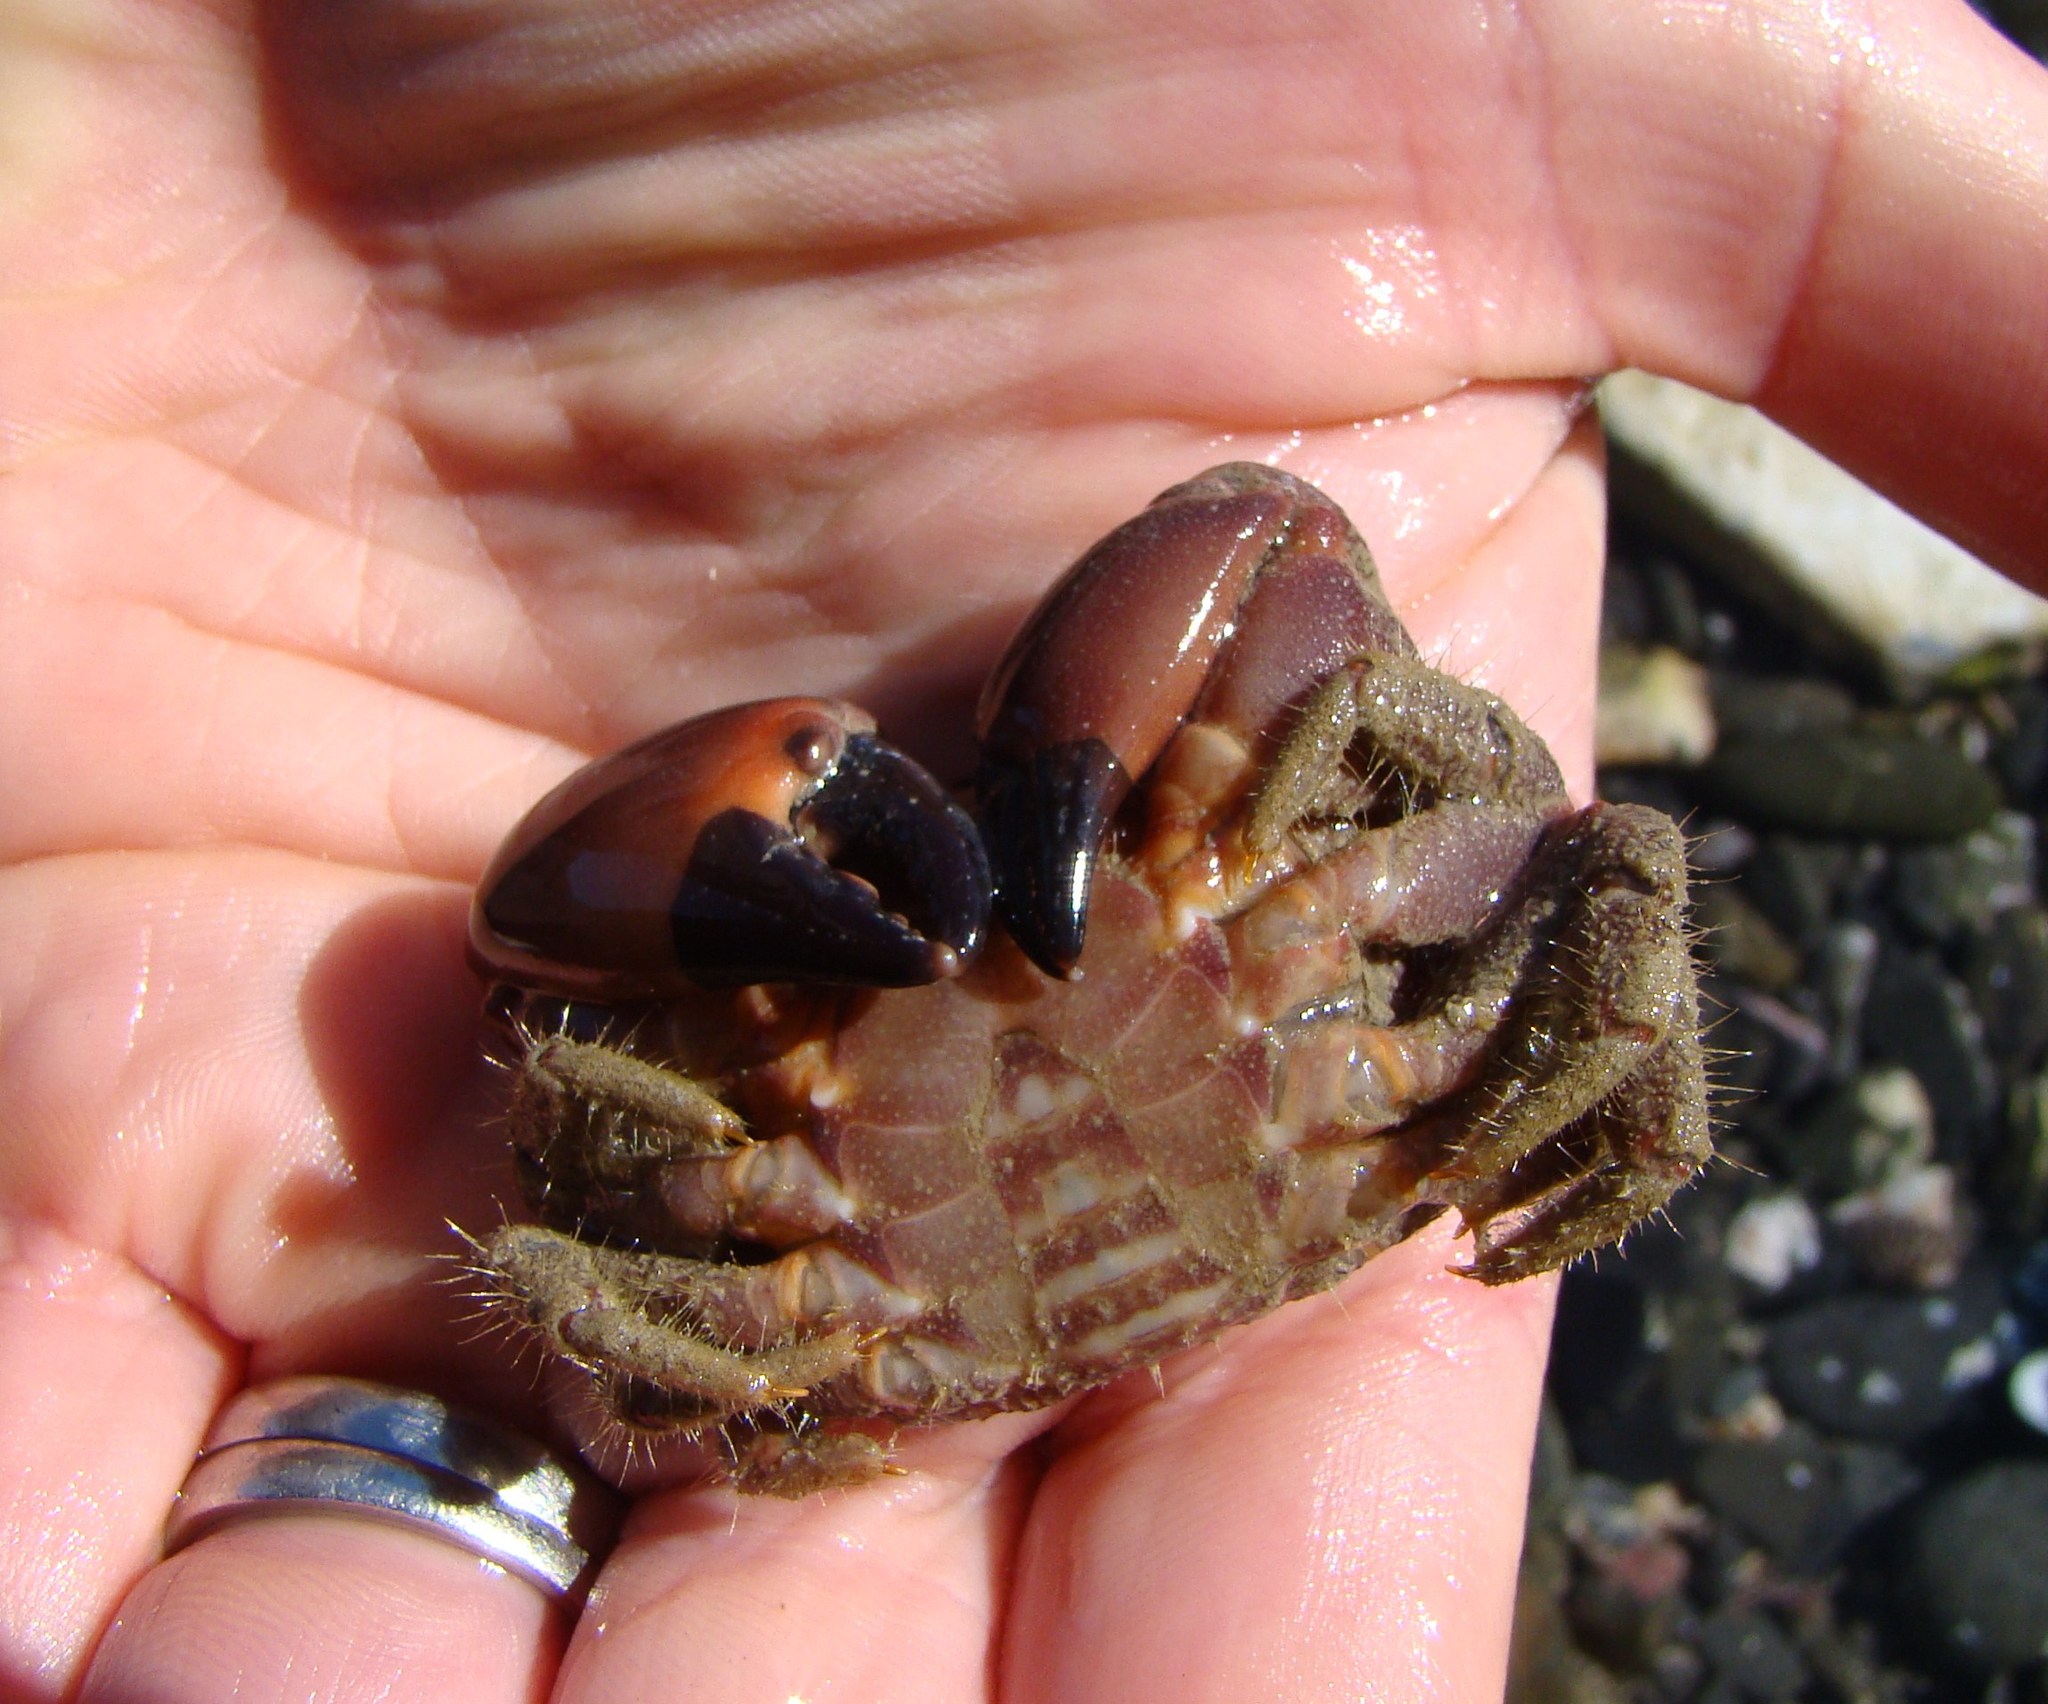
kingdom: Animalia
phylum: Arthropoda
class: Malacostraca
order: Decapoda
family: Oziidae
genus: Ozius
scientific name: Ozius deplanatus
